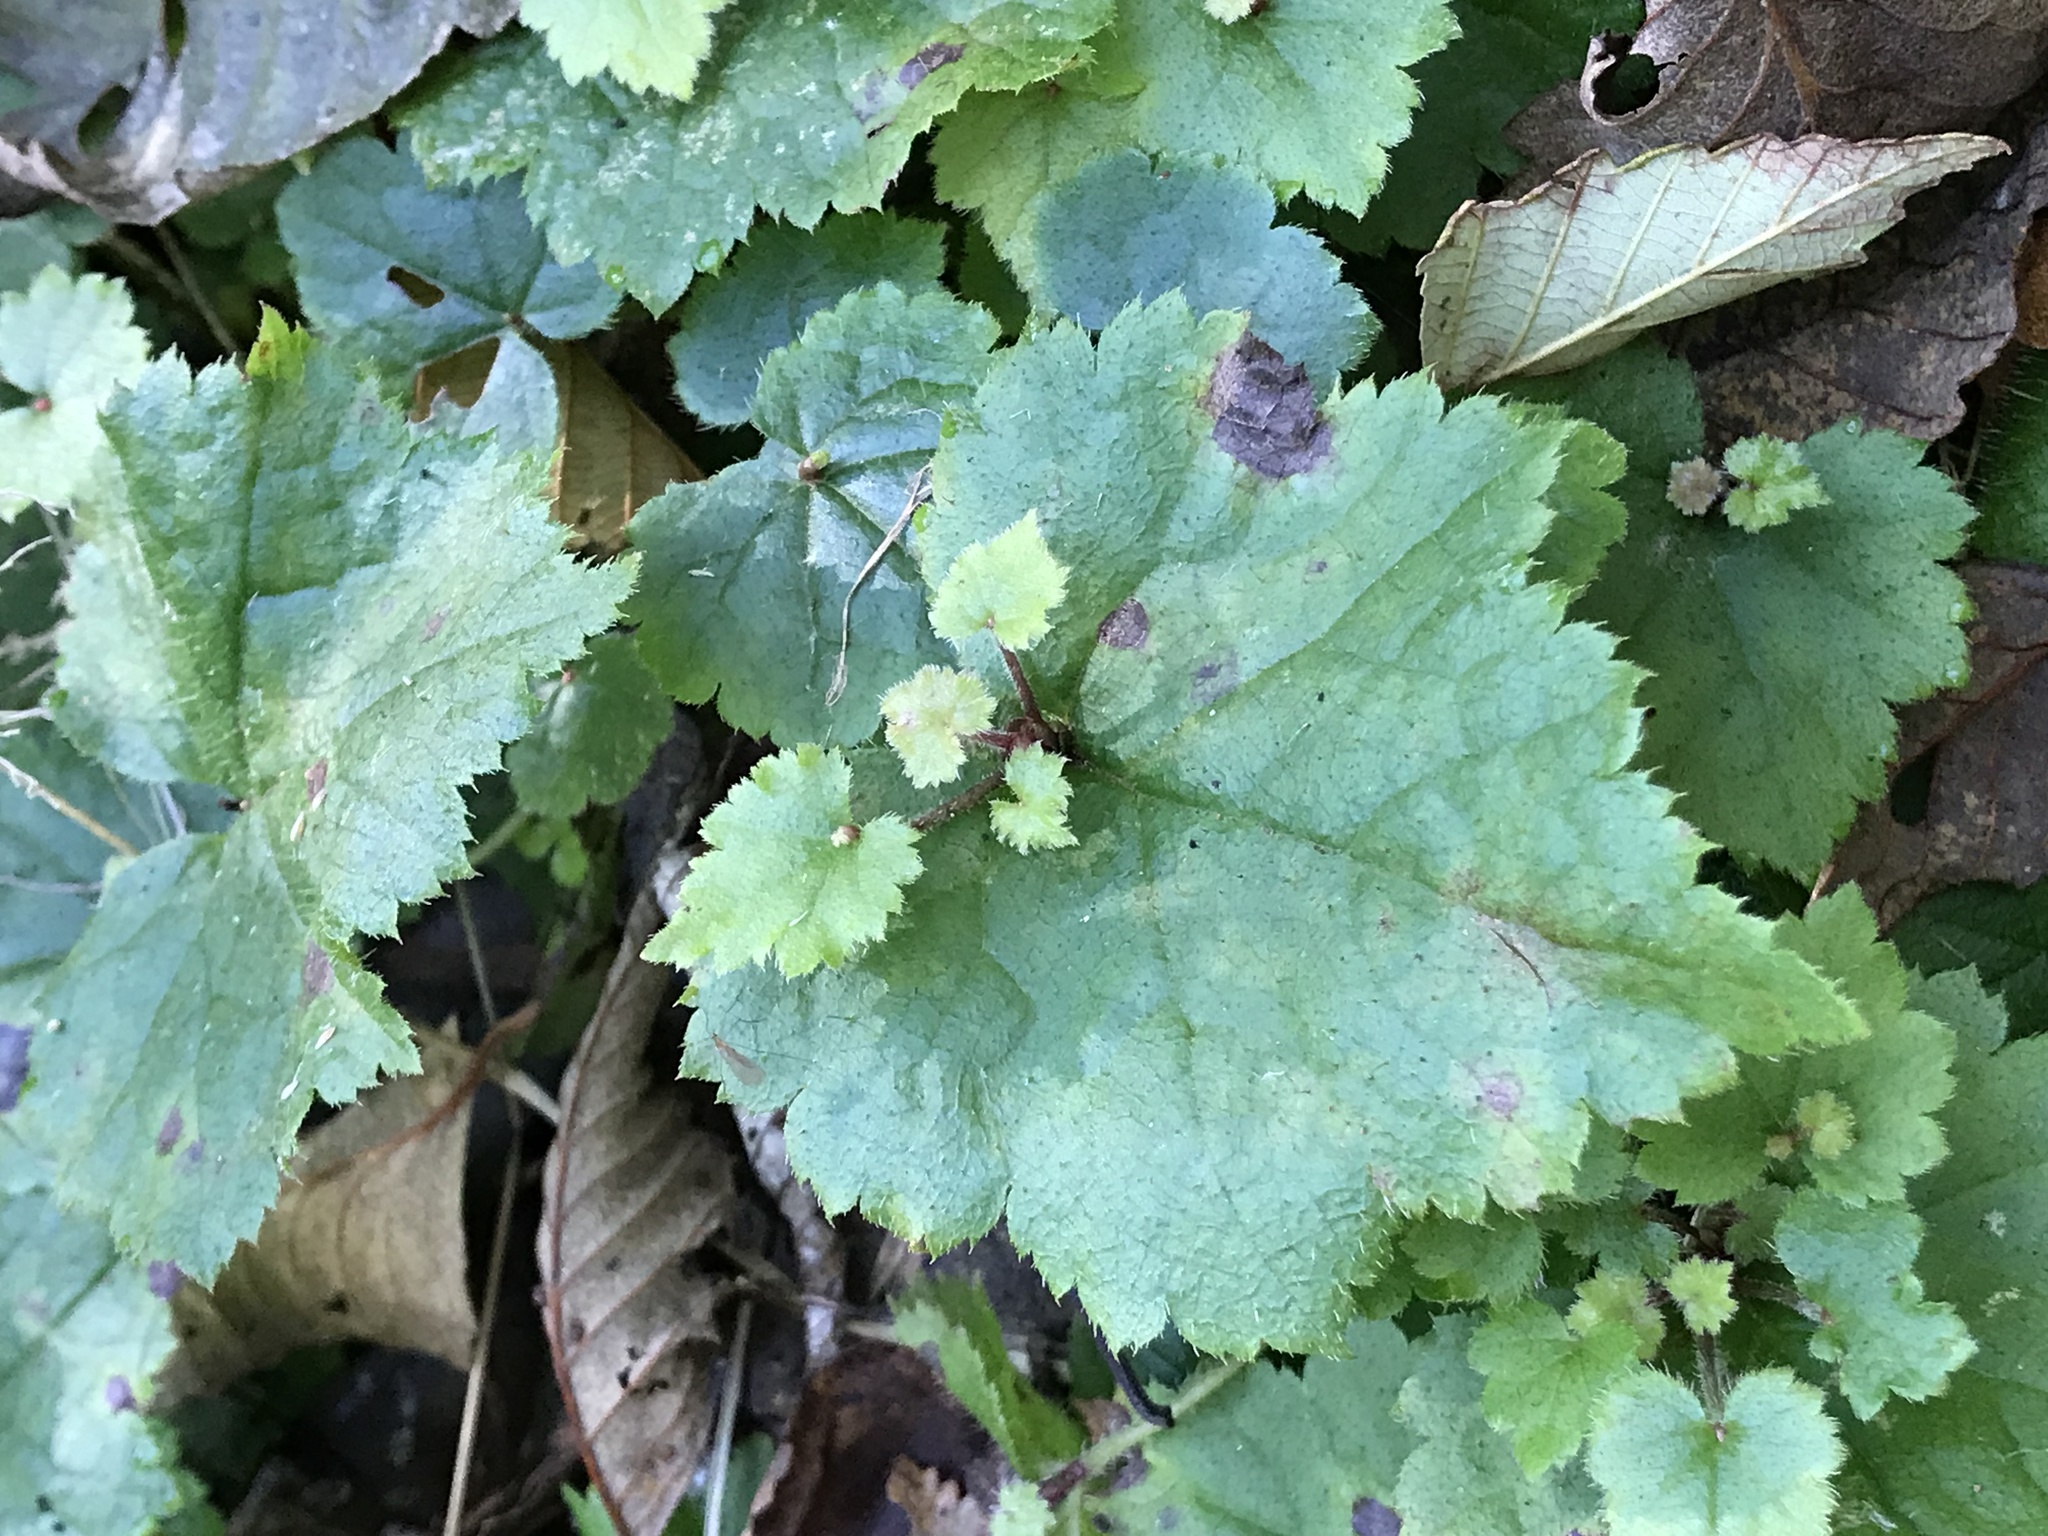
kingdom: Plantae
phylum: Tracheophyta
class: Magnoliopsida
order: Saxifragales
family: Saxifragaceae
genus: Tolmiea
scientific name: Tolmiea menziesii
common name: Pick-a-back-plant
